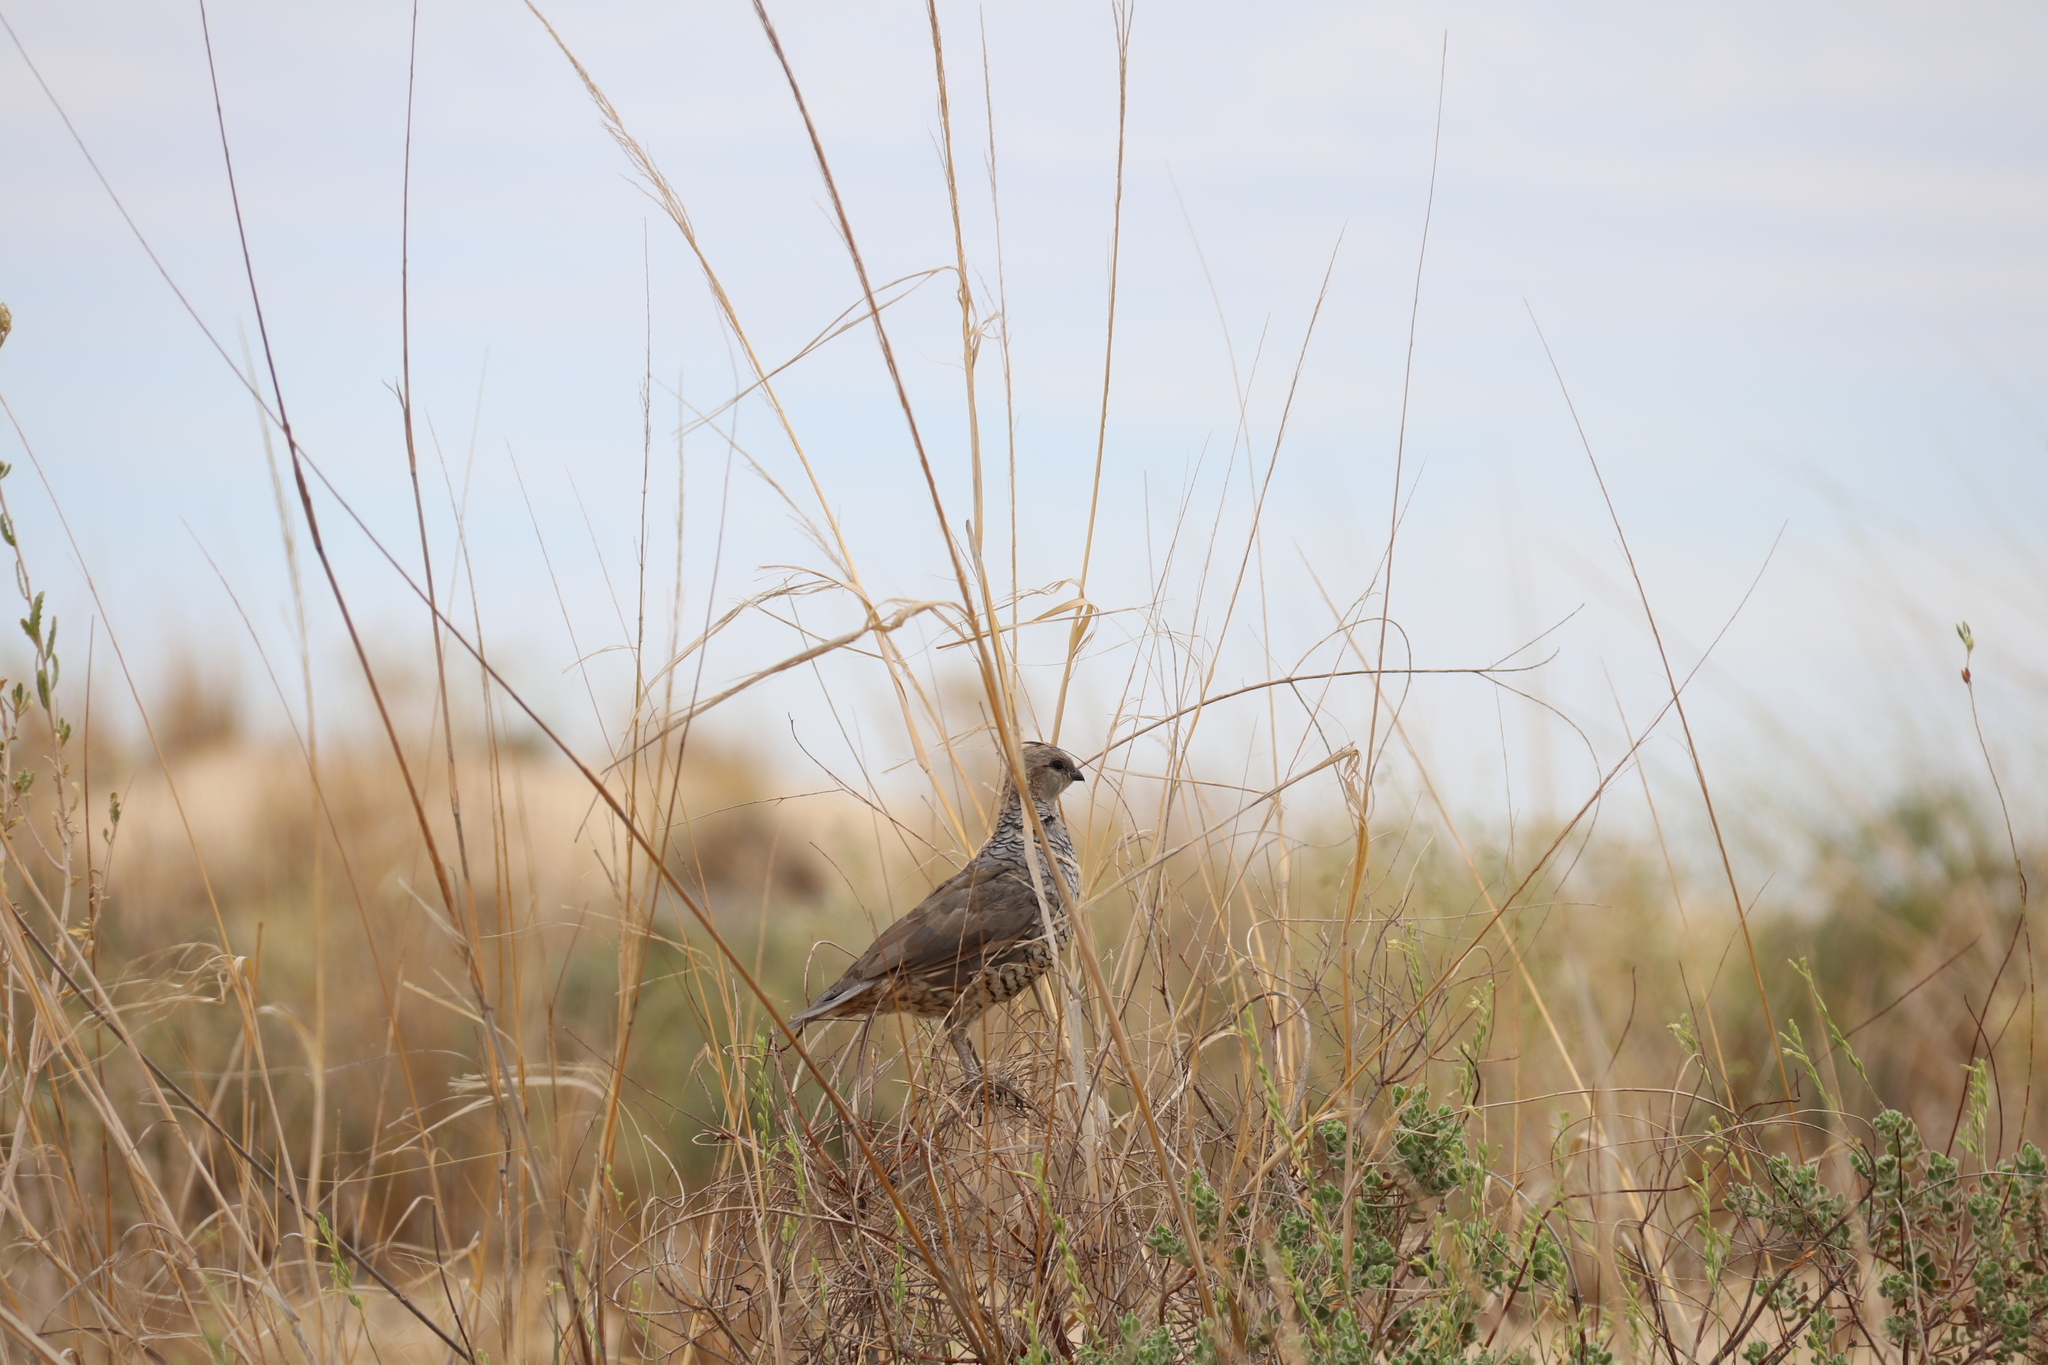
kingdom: Animalia
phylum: Chordata
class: Aves
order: Galliformes
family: Odontophoridae
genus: Callipepla
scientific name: Callipepla squamata
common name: Scaled quail
